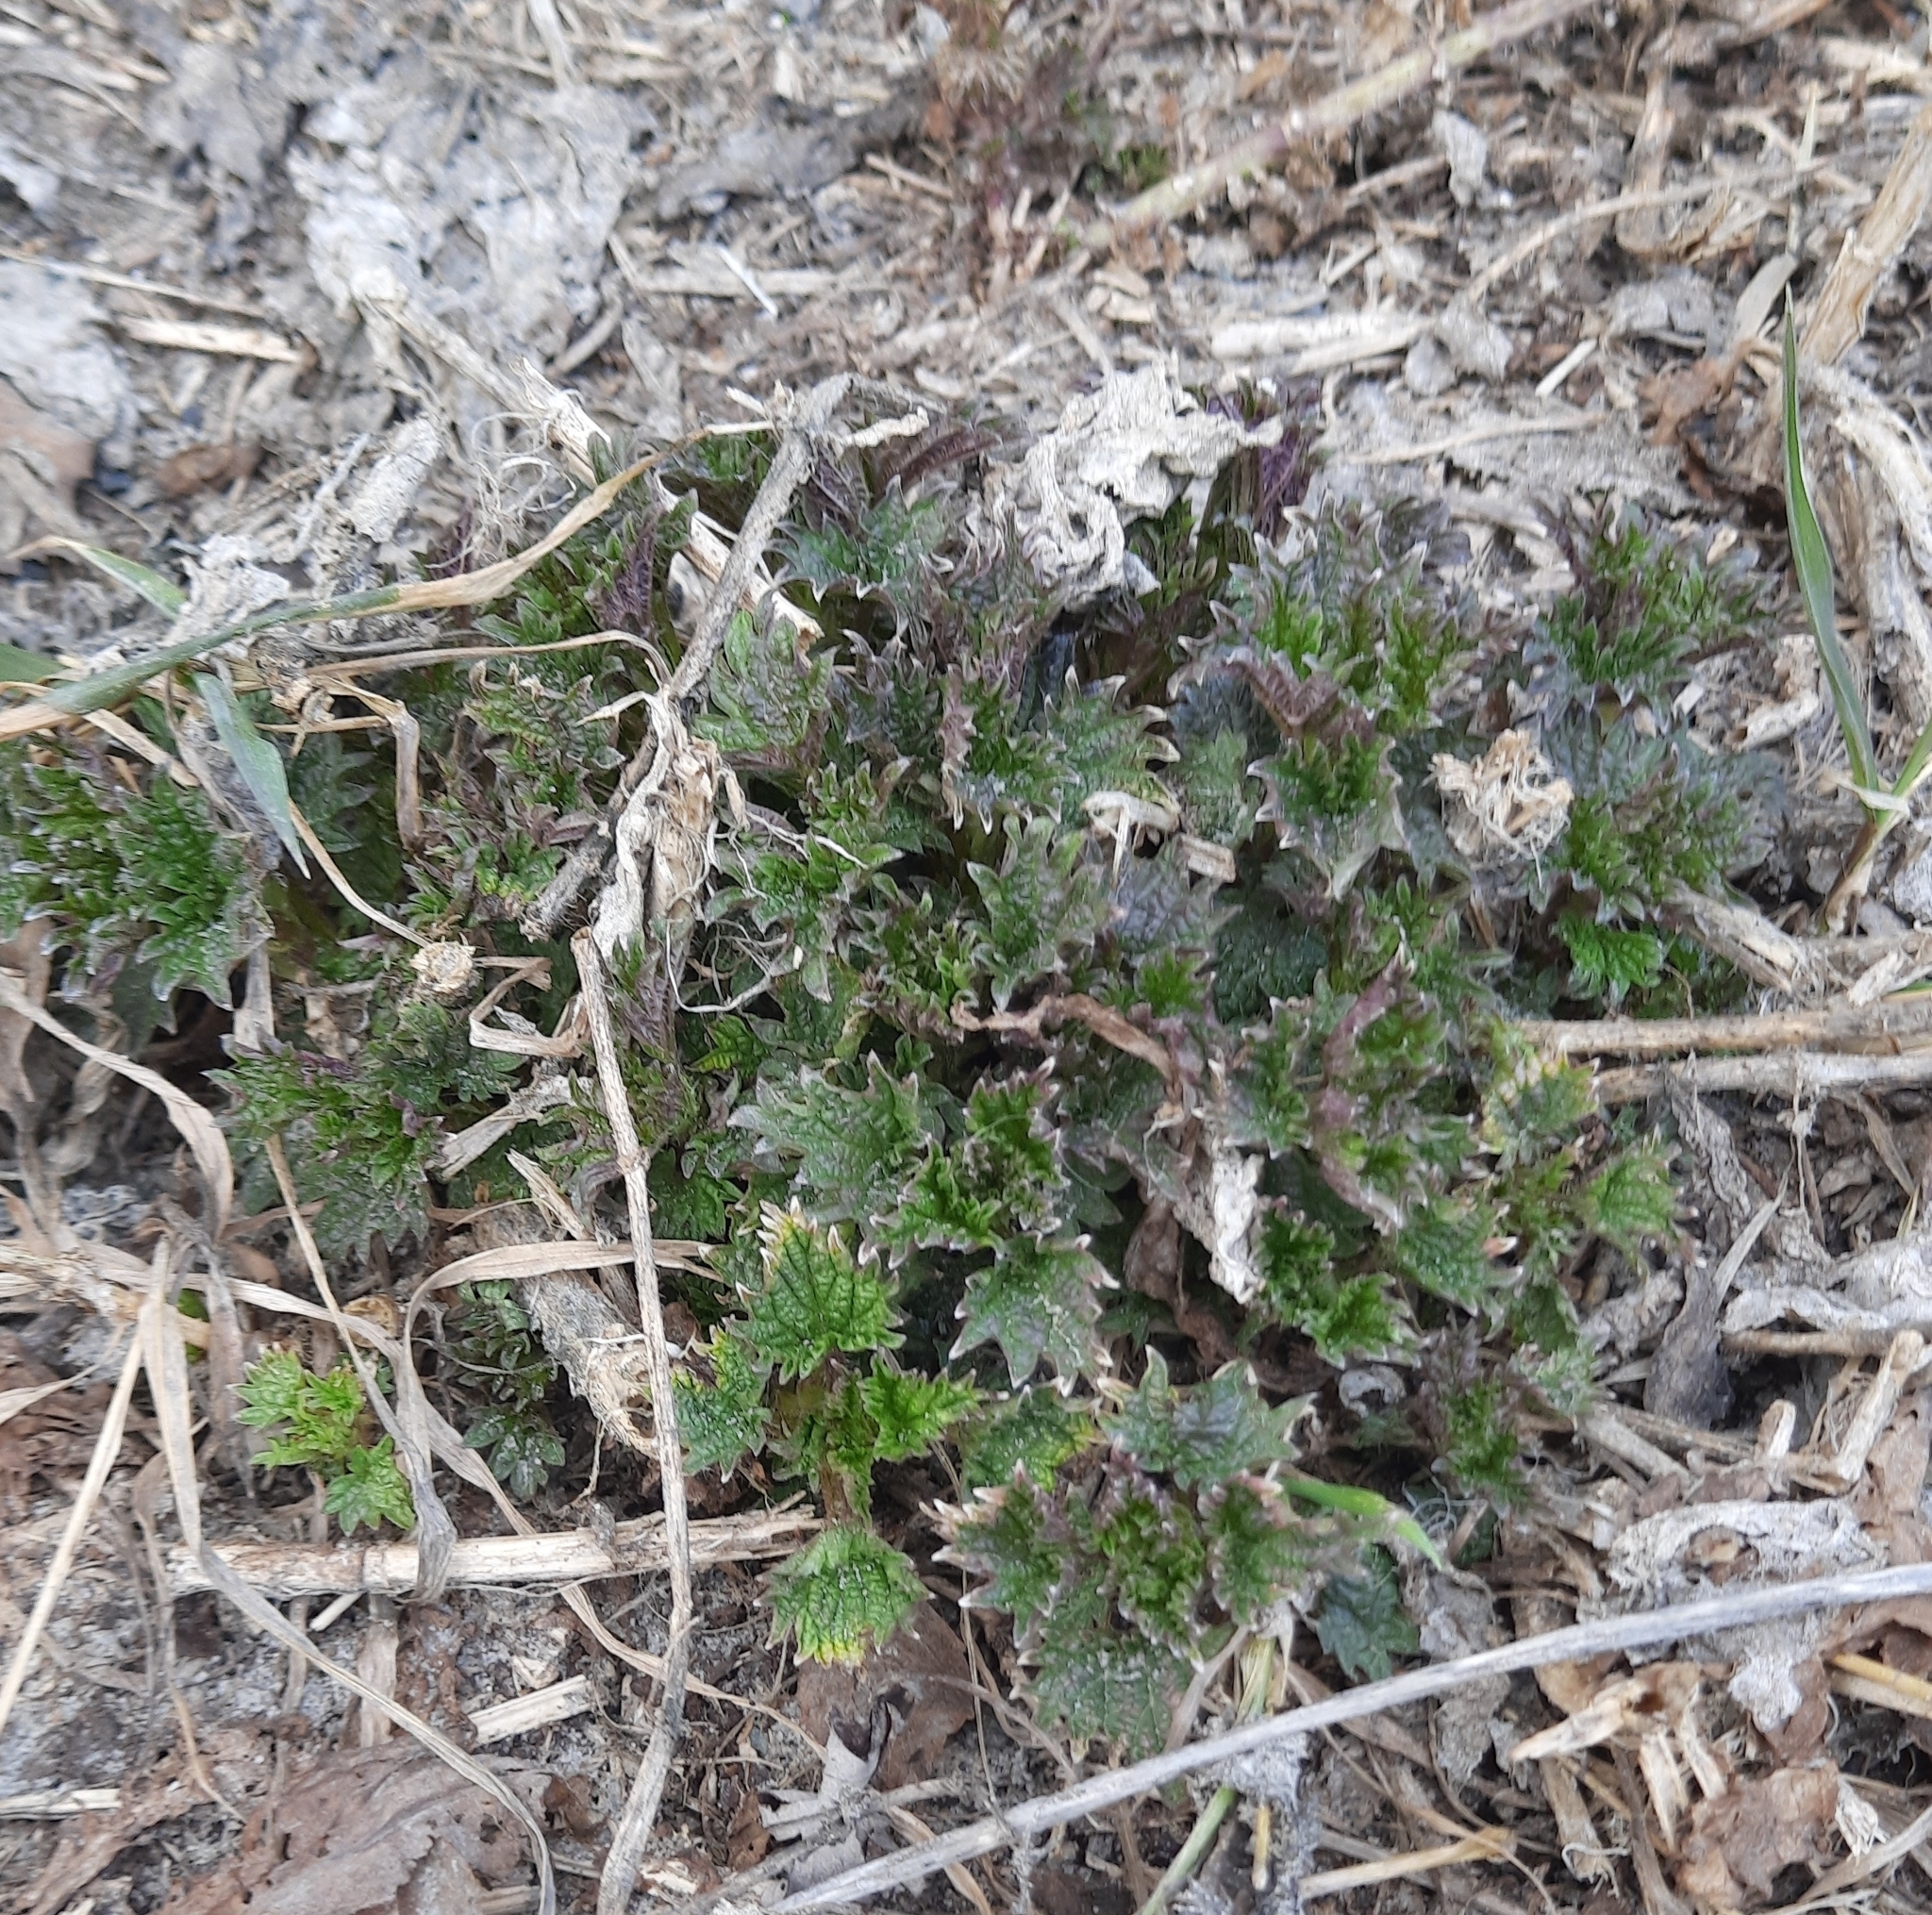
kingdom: Plantae
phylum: Tracheophyta
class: Magnoliopsida
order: Rosales
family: Urticaceae
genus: Urtica
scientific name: Urtica dioica
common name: Common nettle
